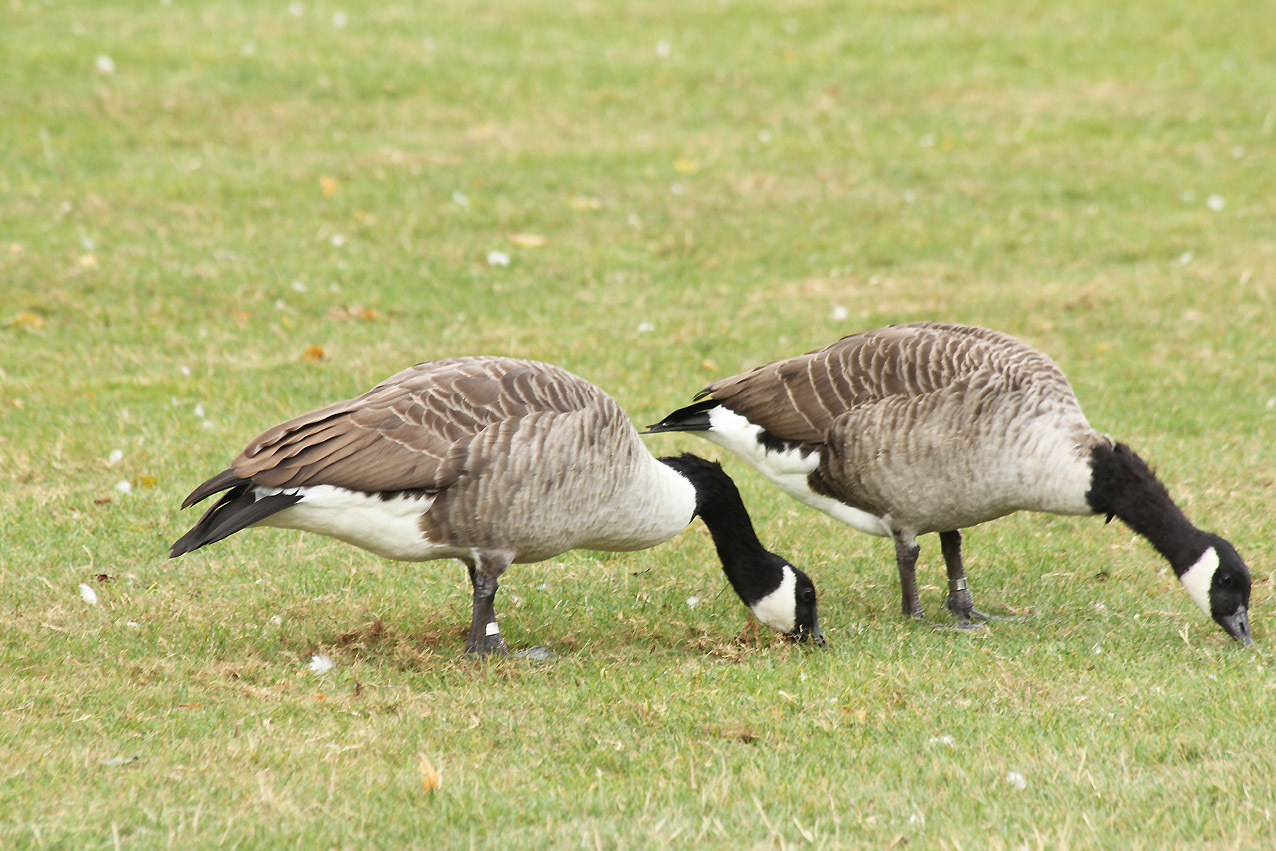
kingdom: Animalia
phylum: Chordata
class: Aves
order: Anseriformes
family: Anatidae
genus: Branta
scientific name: Branta canadensis
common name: Canada goose
